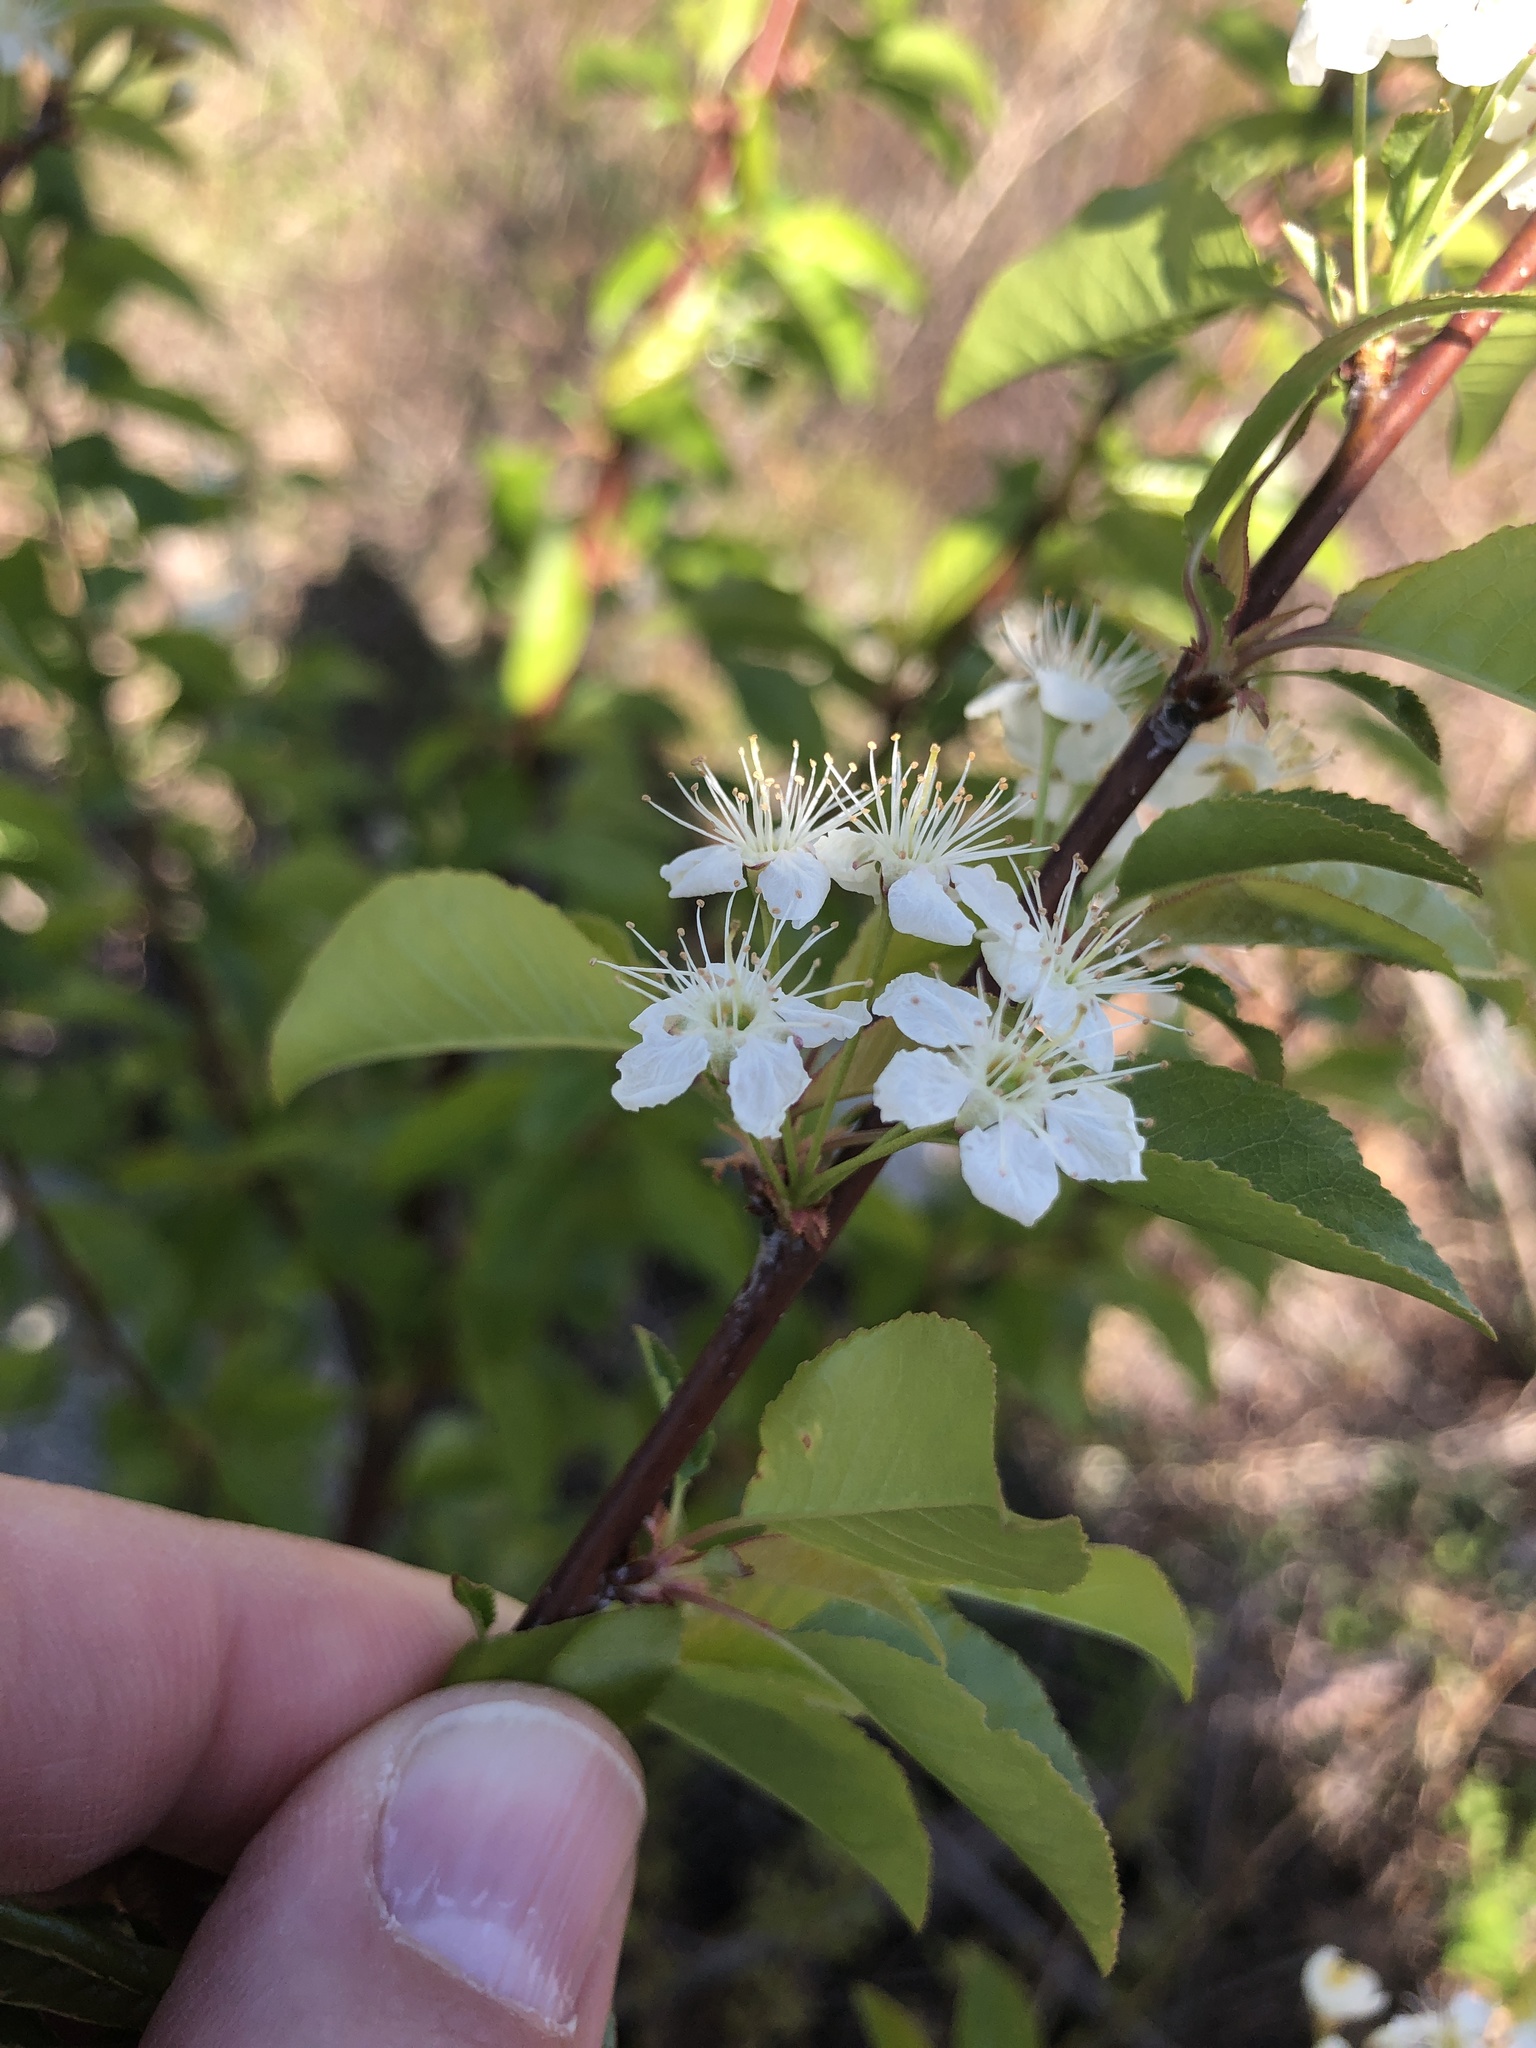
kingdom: Plantae
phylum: Tracheophyta
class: Magnoliopsida
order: Rosales
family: Rosaceae
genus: Prunus
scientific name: Prunus pensylvanica
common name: Pin cherry
